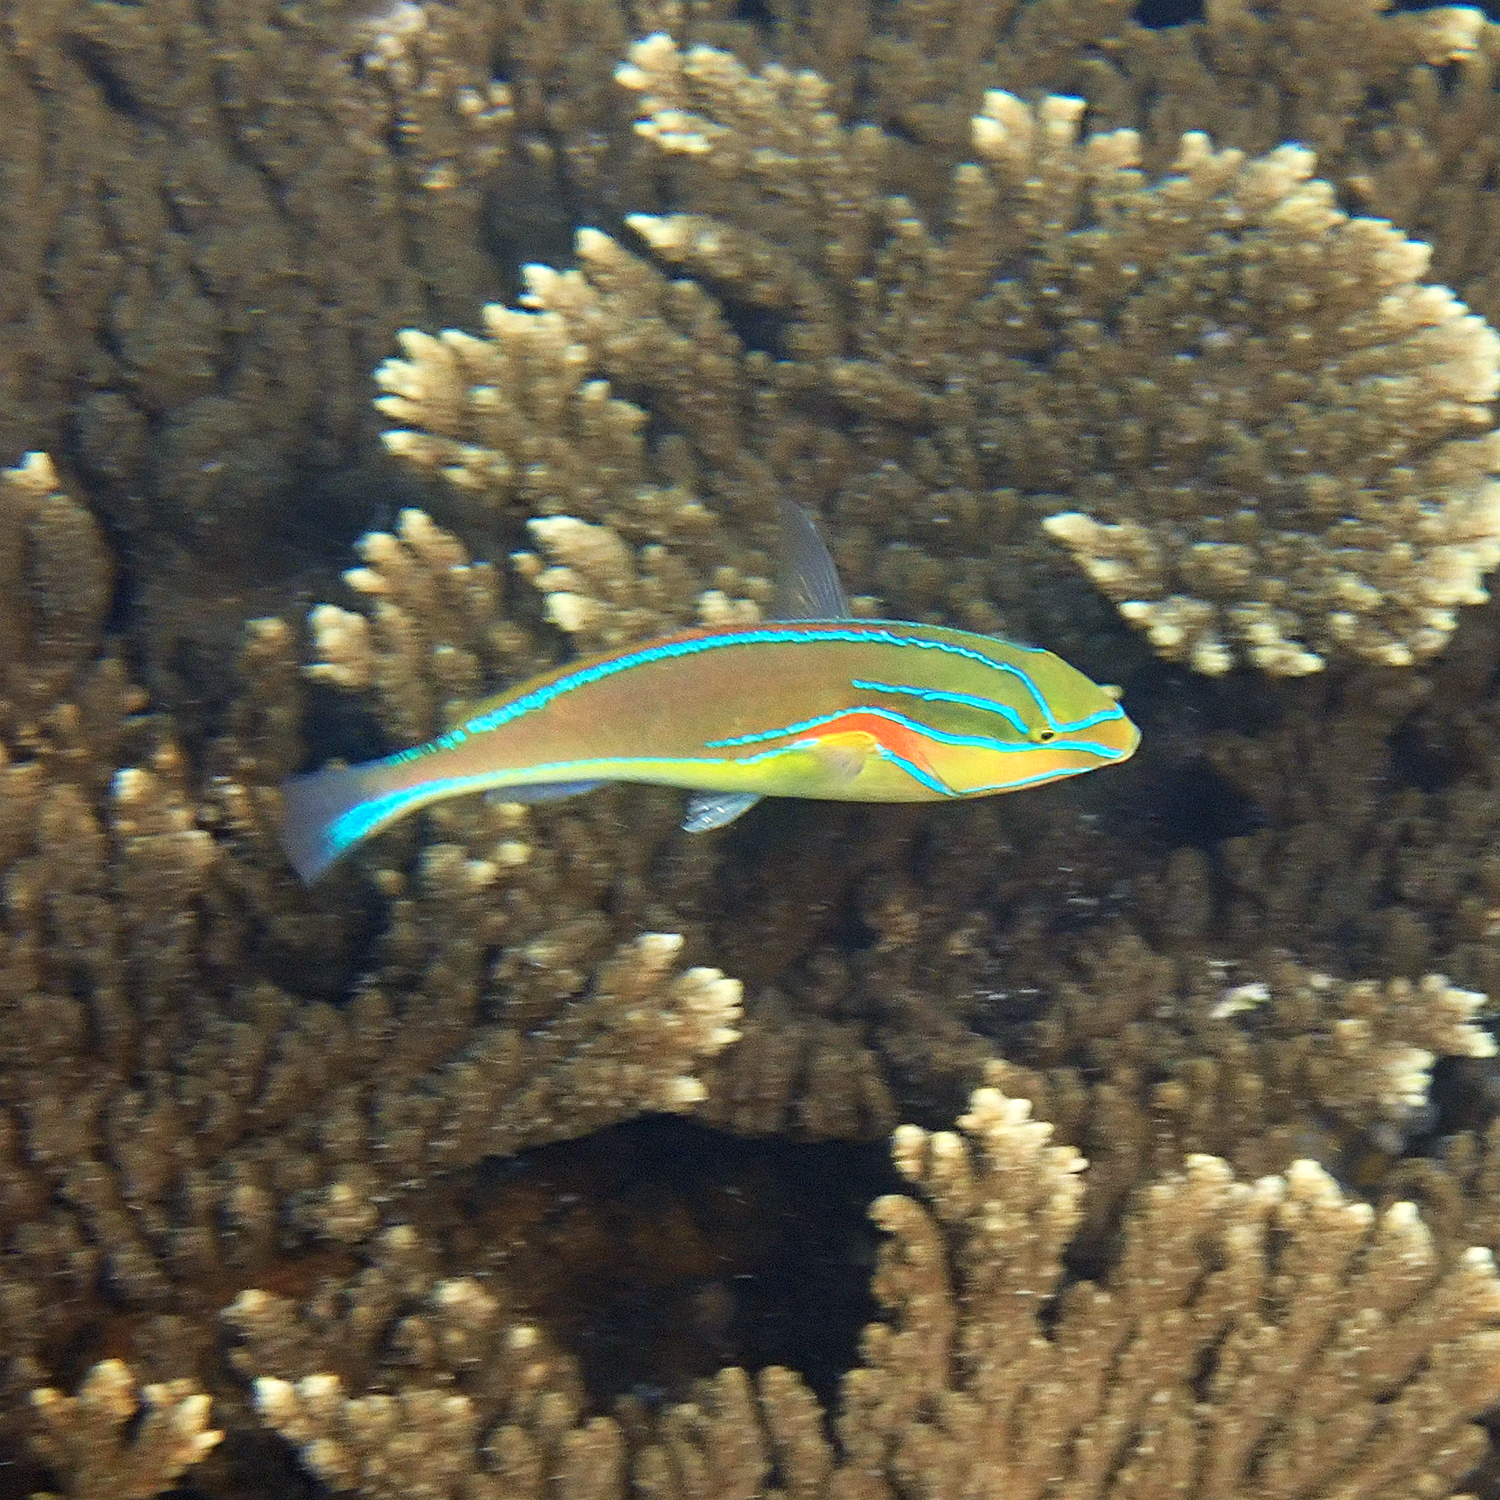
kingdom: Animalia
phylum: Chordata
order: Perciformes
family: Labridae
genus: Stethojulis
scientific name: Stethojulis bandanensis
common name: Red shoulder wrasse
